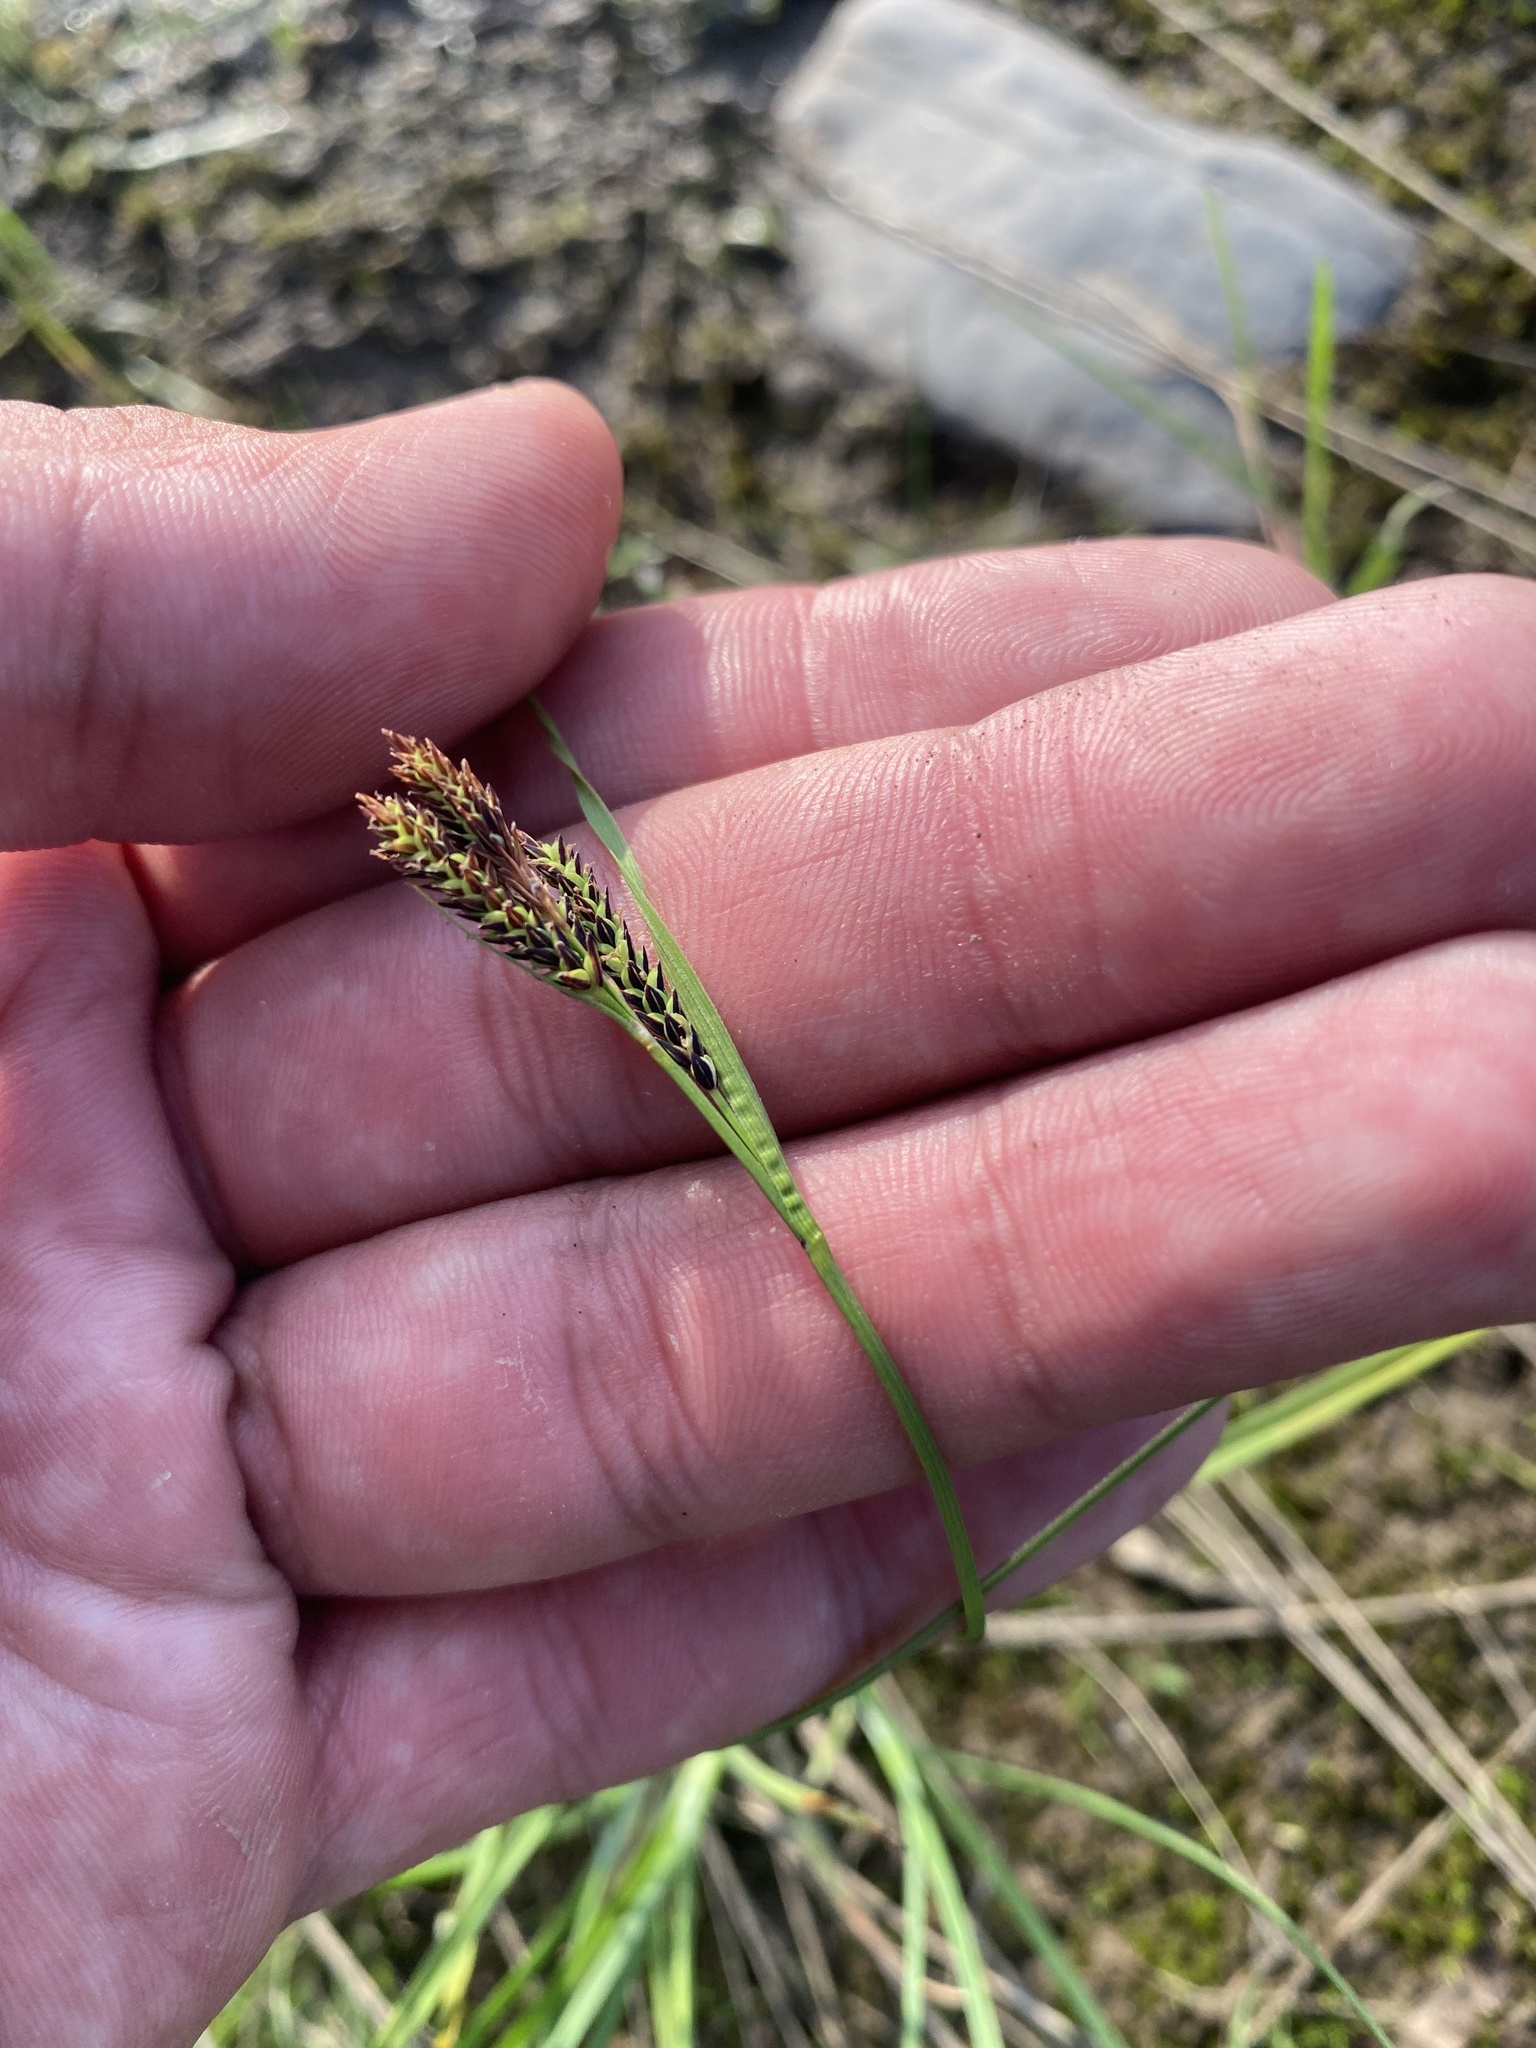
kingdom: Plantae
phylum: Tracheophyta
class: Liliopsida
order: Poales
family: Cyperaceae
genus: Carex
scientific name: Carex eleusinoides
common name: Goosegrass sedge
